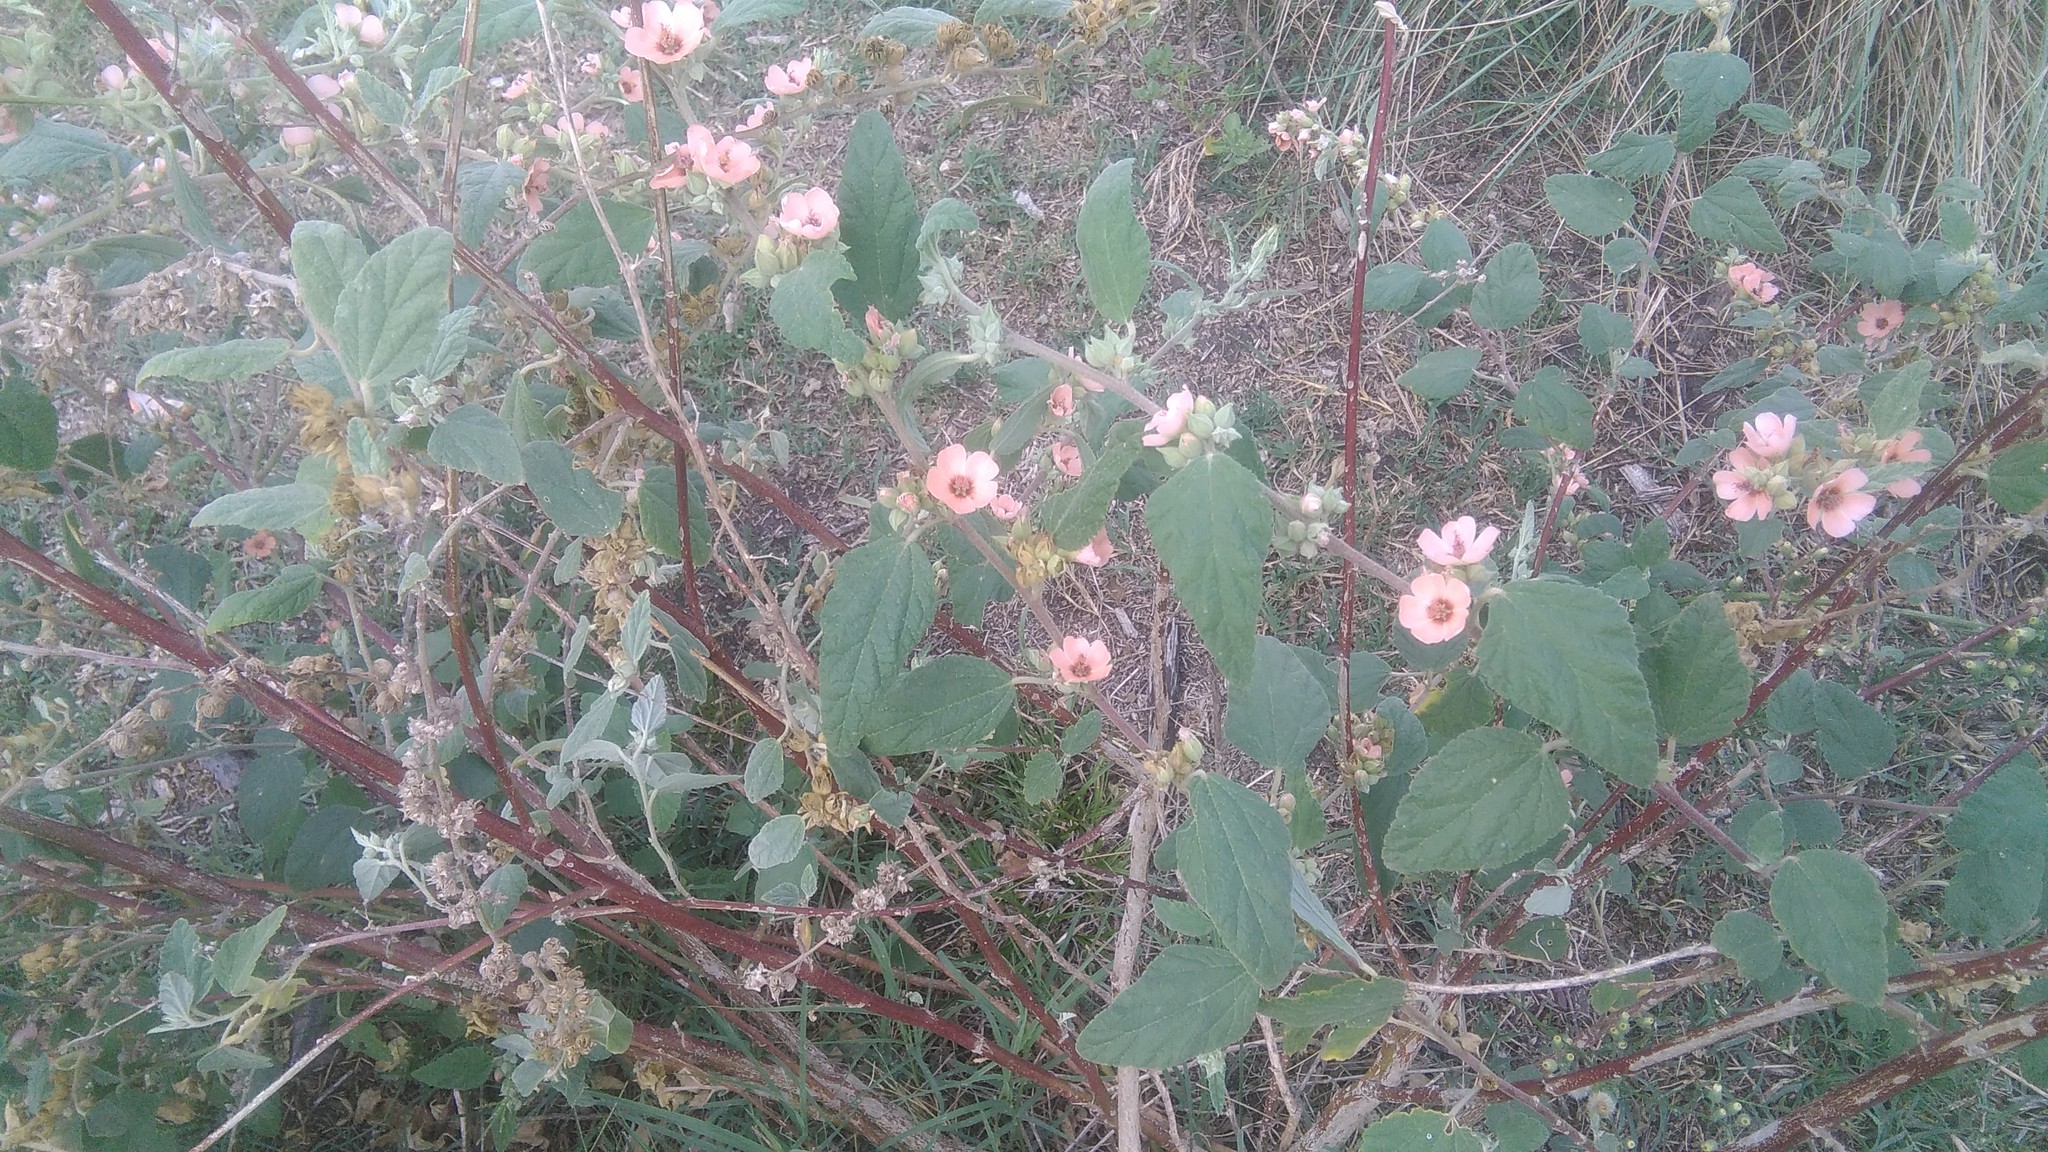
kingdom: Plantae
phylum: Tracheophyta
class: Magnoliopsida
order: Malvales
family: Malvaceae
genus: Sphaeralcea
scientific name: Sphaeralcea bonariensis
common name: Latin globemallow
